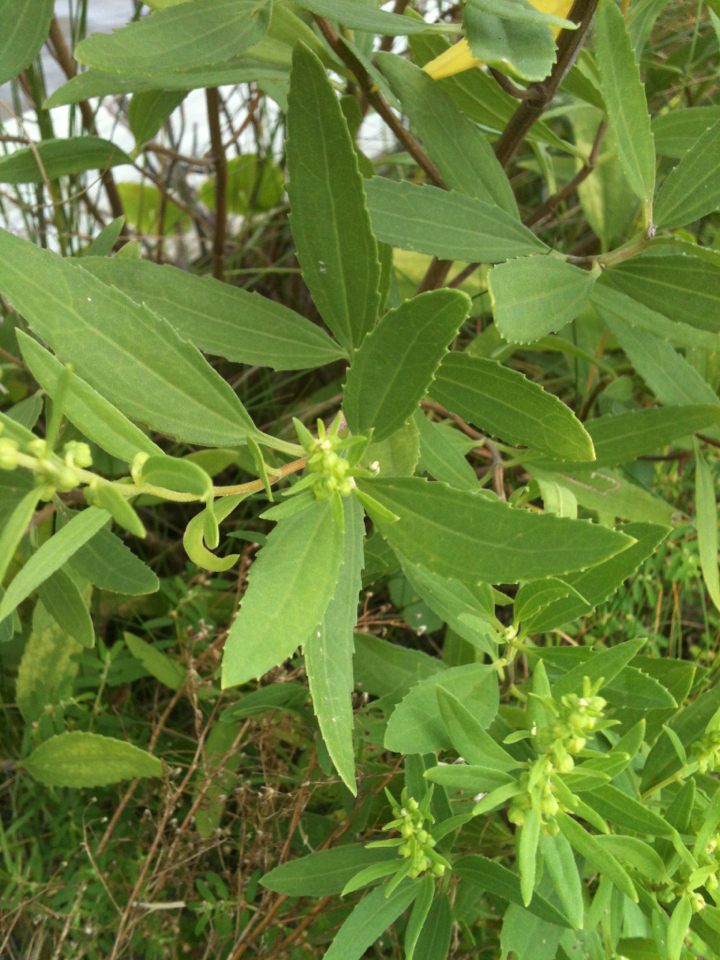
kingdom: Plantae
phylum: Tracheophyta
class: Magnoliopsida
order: Asterales
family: Asteraceae
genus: Iva
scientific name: Iva frutescens
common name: Big-leaved marsh-elder
